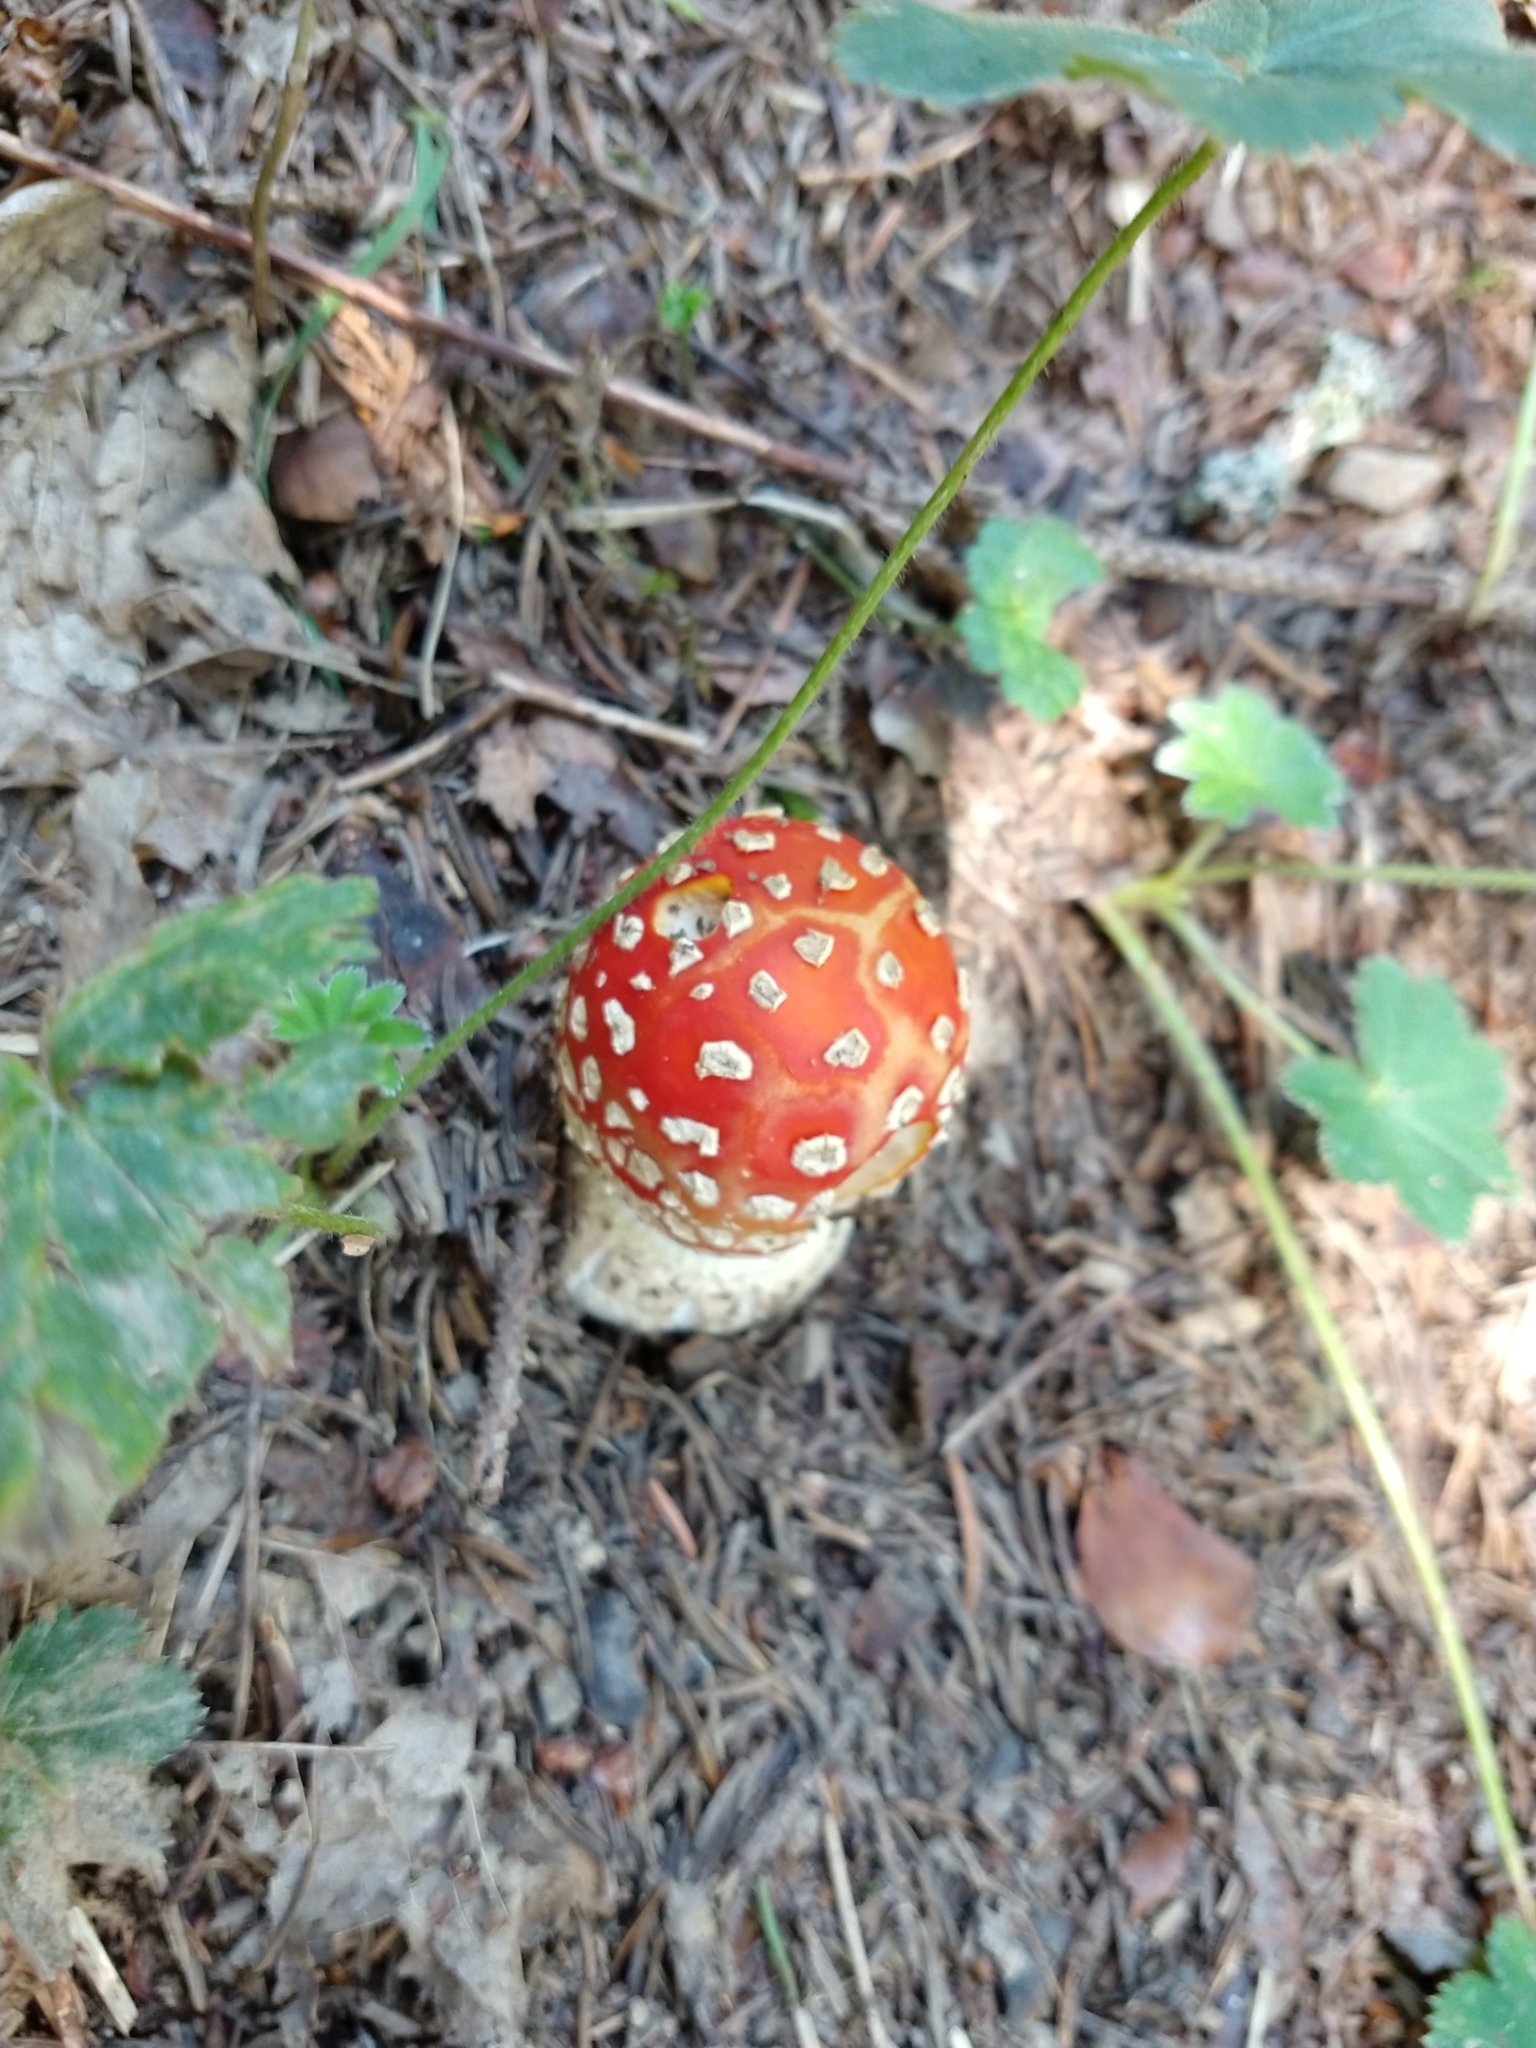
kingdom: Fungi
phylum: Basidiomycota
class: Agaricomycetes
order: Agaricales
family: Amanitaceae
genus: Amanita
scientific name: Amanita muscaria
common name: Fly agaric
